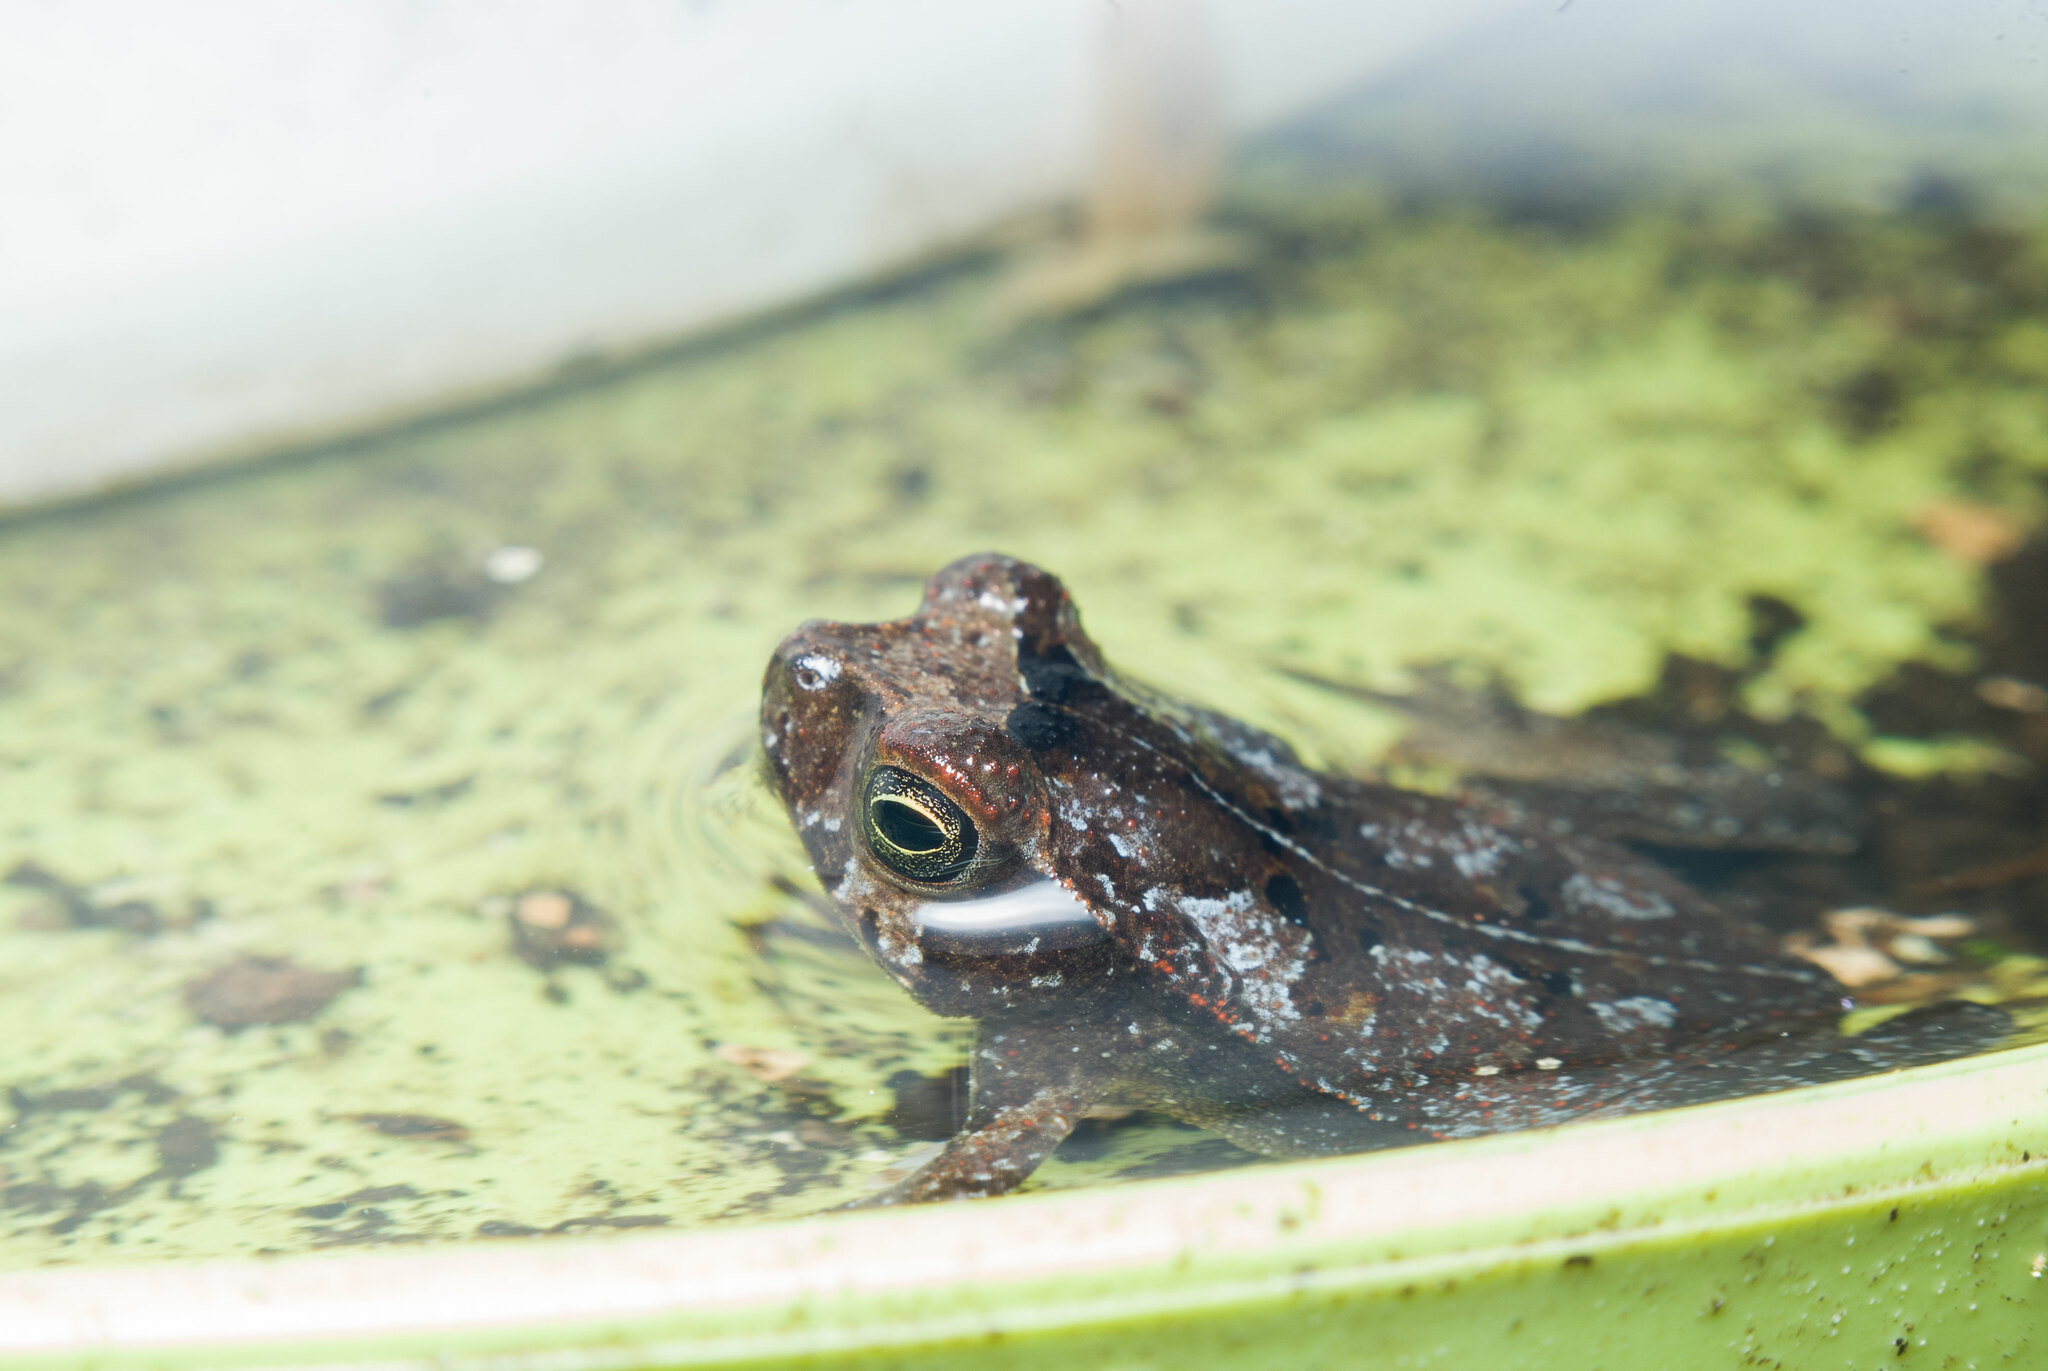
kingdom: Animalia
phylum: Chordata
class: Amphibia
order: Anura
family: Bufonidae
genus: Rhinella
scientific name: Rhinella alata
